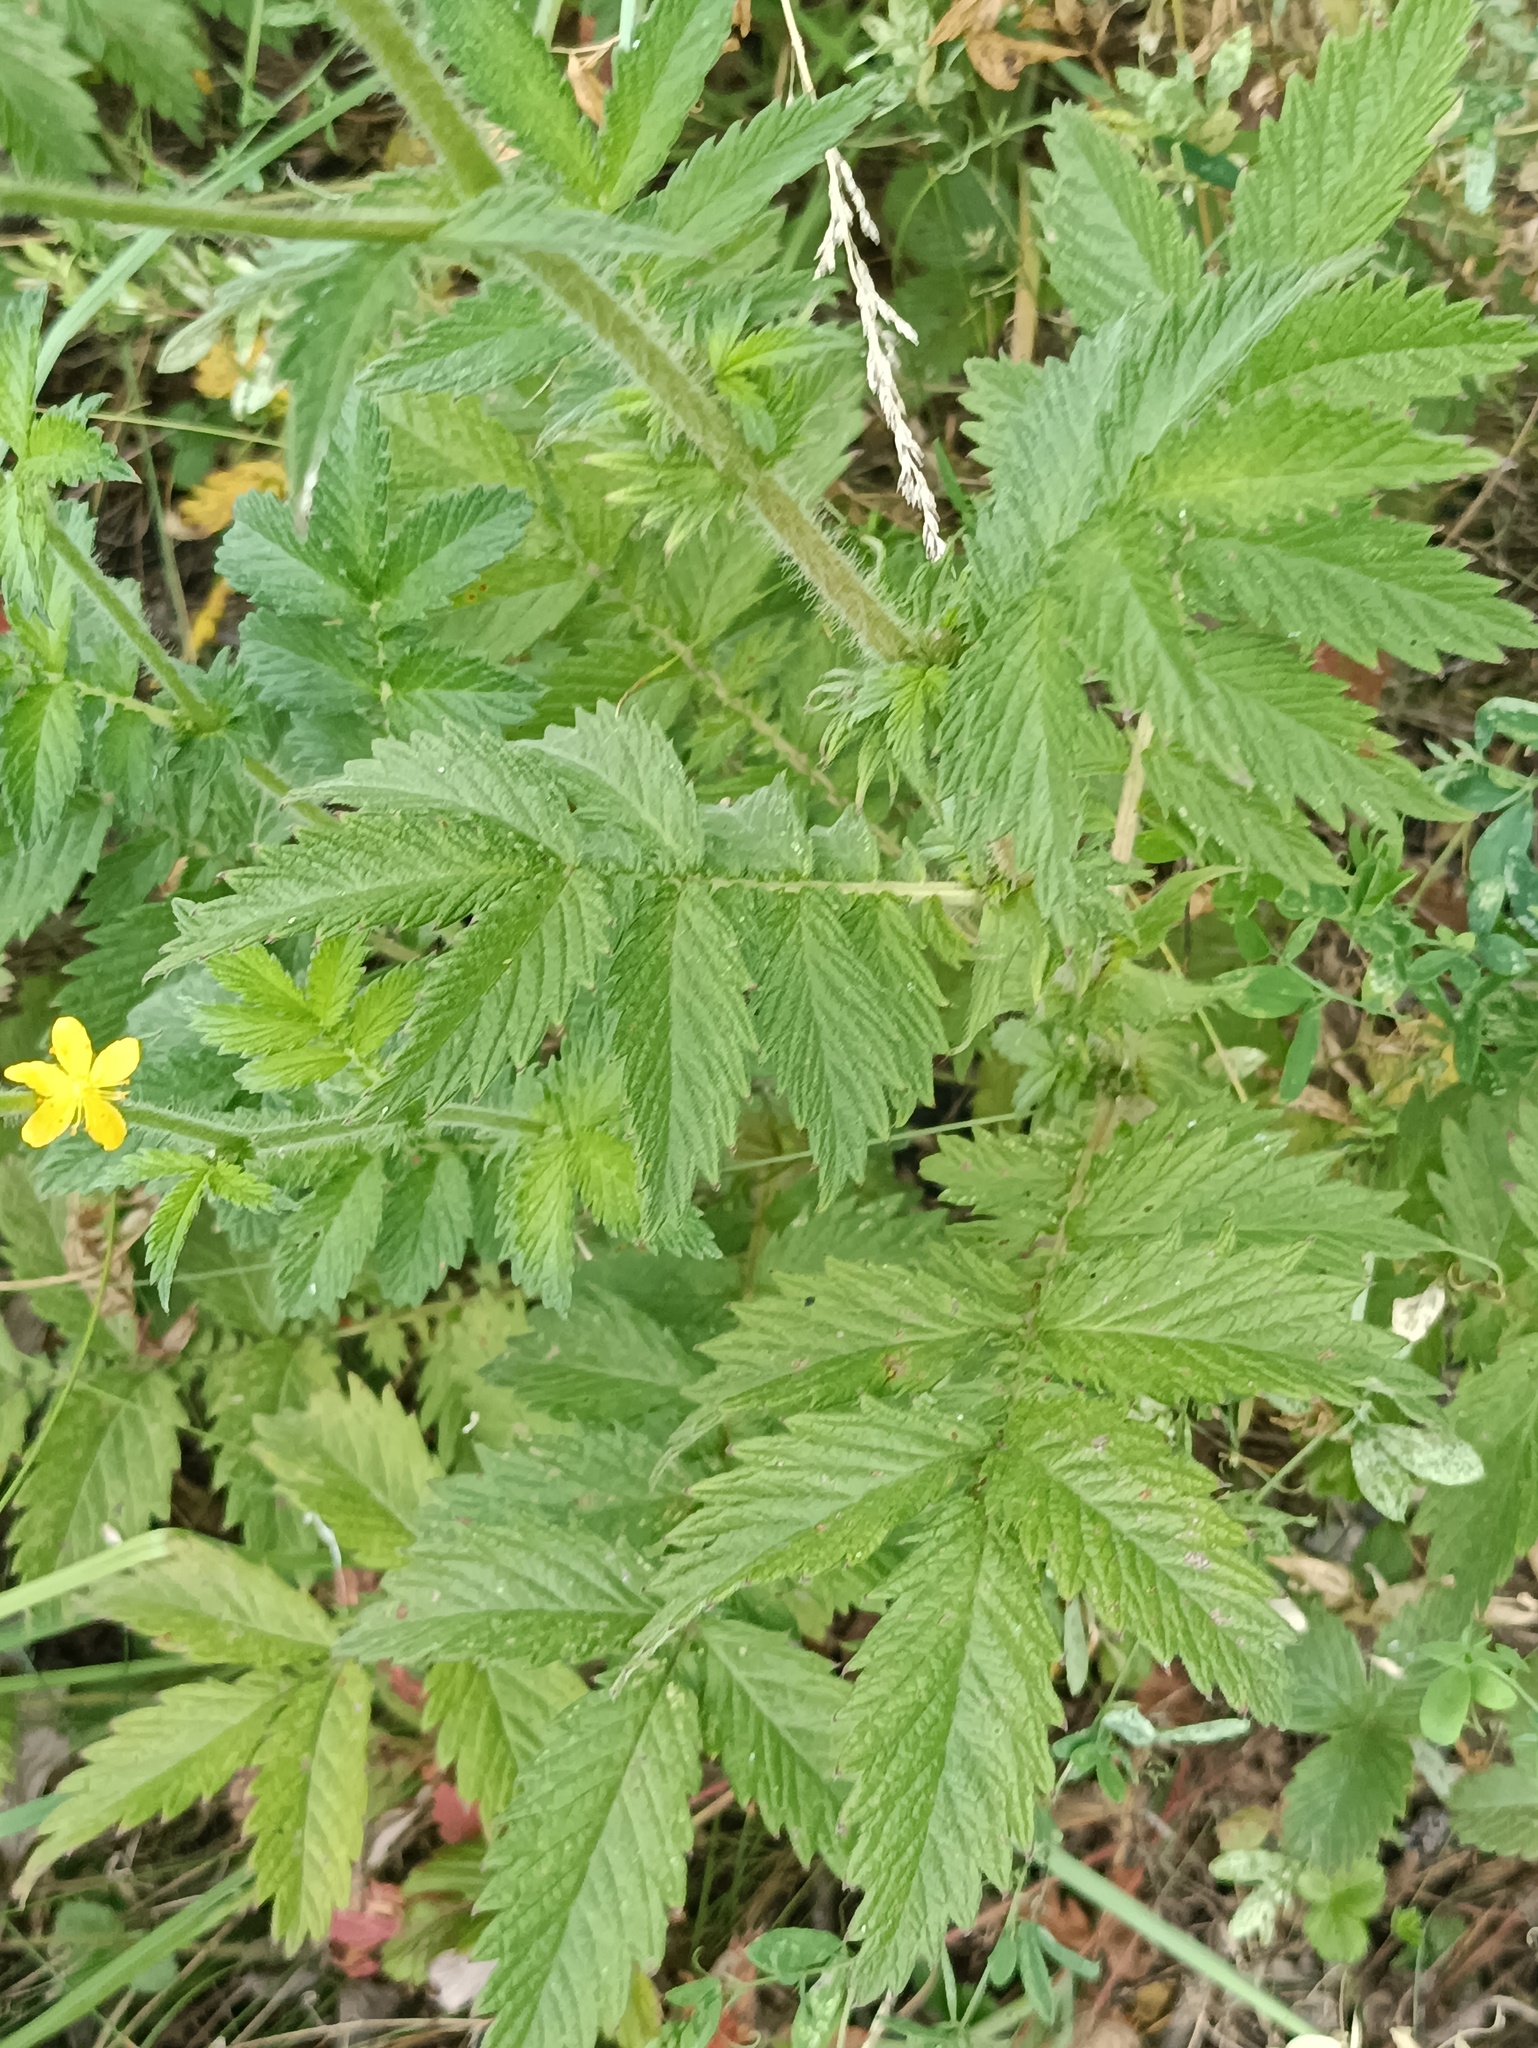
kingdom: Plantae
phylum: Tracheophyta
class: Magnoliopsida
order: Rosales
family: Rosaceae
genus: Agrimonia
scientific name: Agrimonia eupatoria
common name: Agrimony
